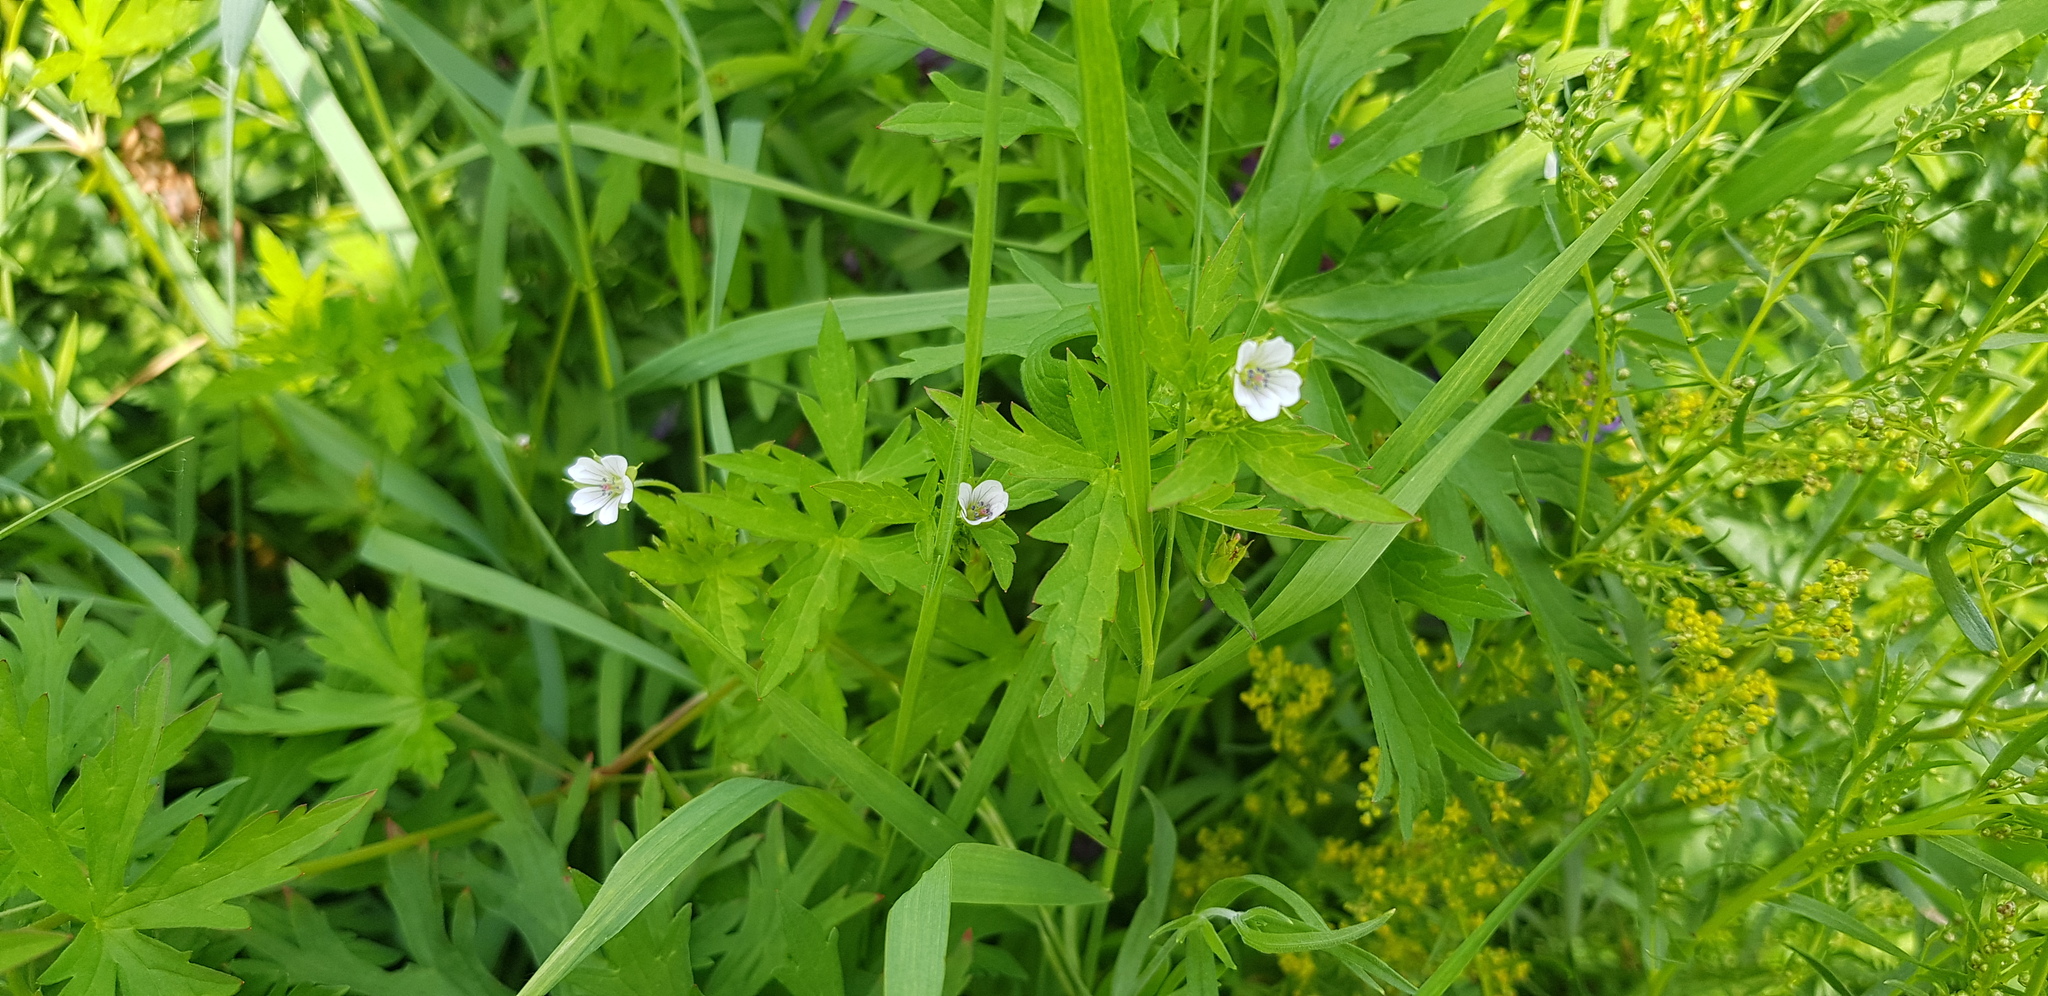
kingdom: Plantae
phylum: Tracheophyta
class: Magnoliopsida
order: Geraniales
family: Geraniaceae
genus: Geranium
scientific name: Geranium sibiricum
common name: Siberian crane's-bill
